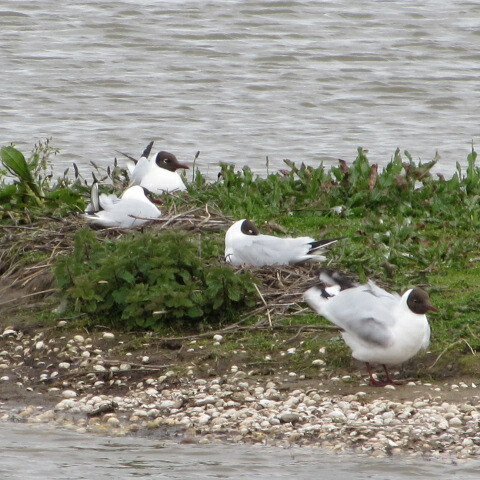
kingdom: Animalia
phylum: Chordata
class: Aves
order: Charadriiformes
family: Laridae
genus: Chroicocephalus
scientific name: Chroicocephalus ridibundus
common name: Black-headed gull
